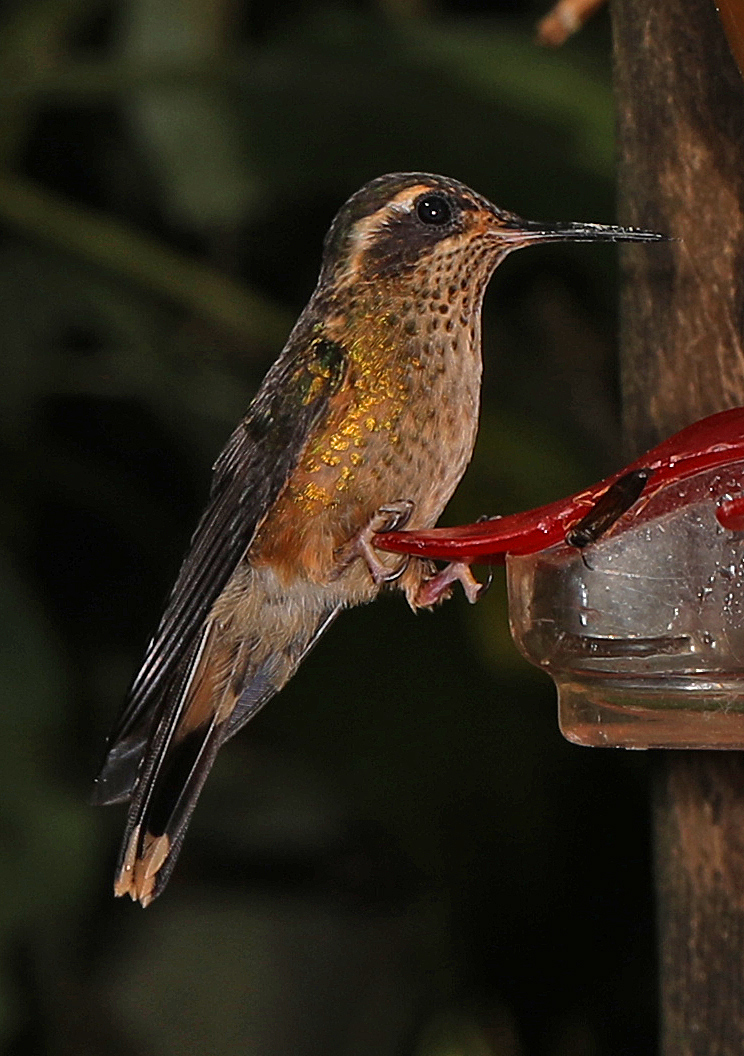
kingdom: Animalia
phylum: Chordata
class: Aves
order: Apodiformes
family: Trochilidae
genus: Adelomyia
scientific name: Adelomyia melanogenys
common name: Speckled hummingbird
